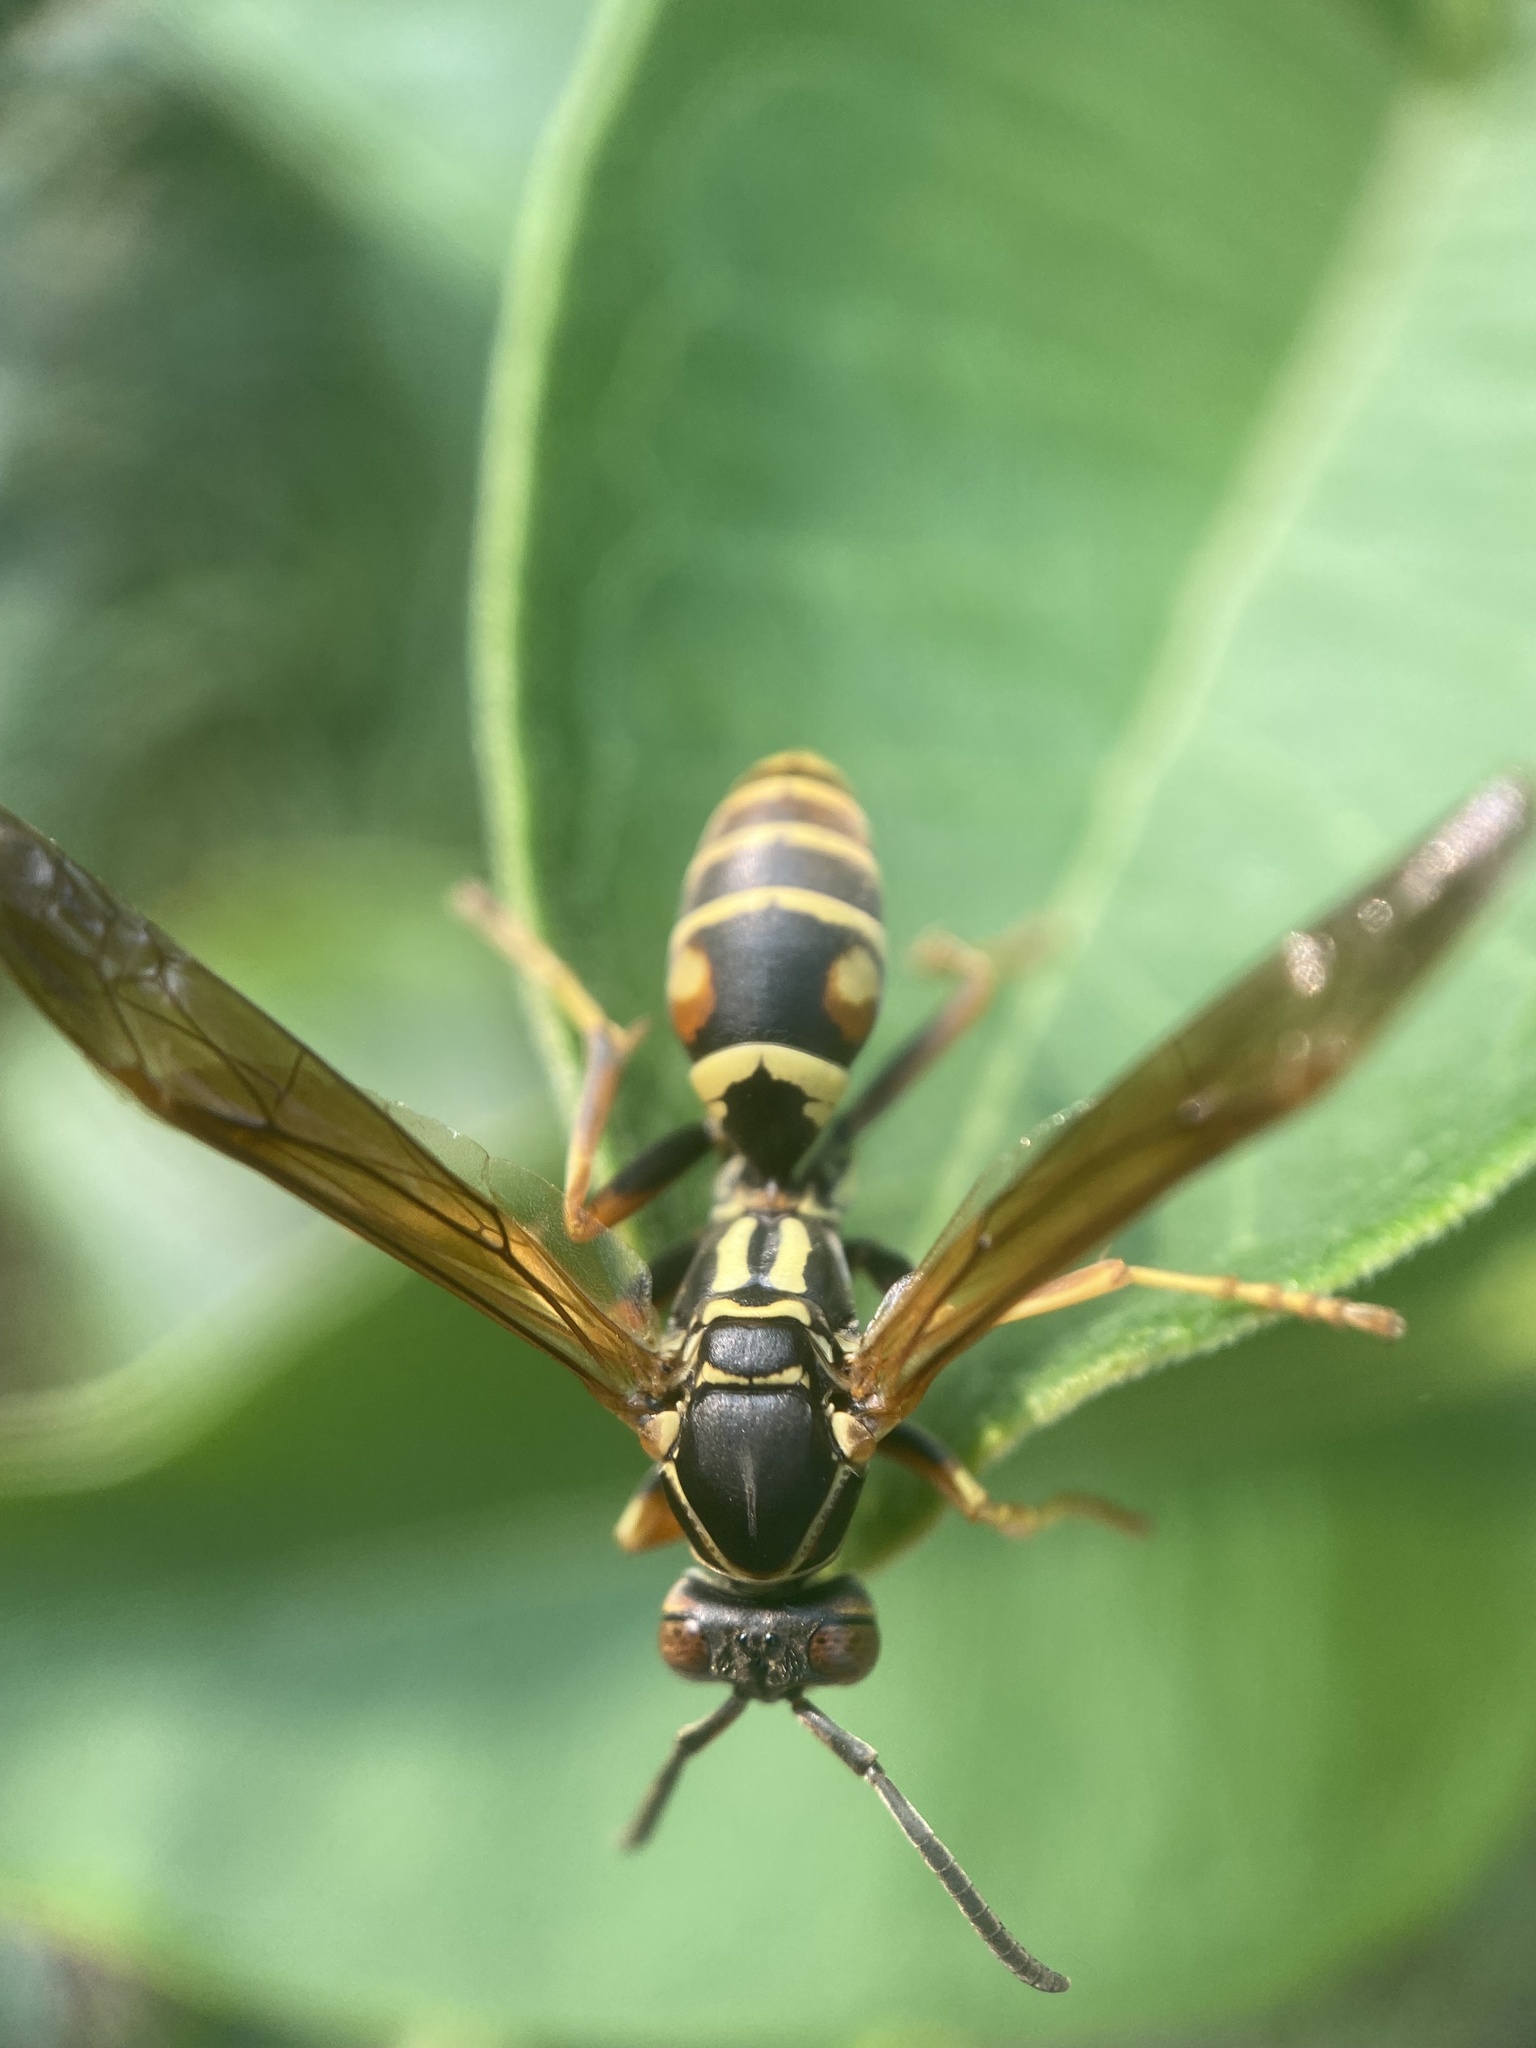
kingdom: Animalia
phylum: Arthropoda
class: Insecta
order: Hymenoptera
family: Eumenidae
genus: Polistes
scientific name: Polistes fuscatus
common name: Dark paper wasp
